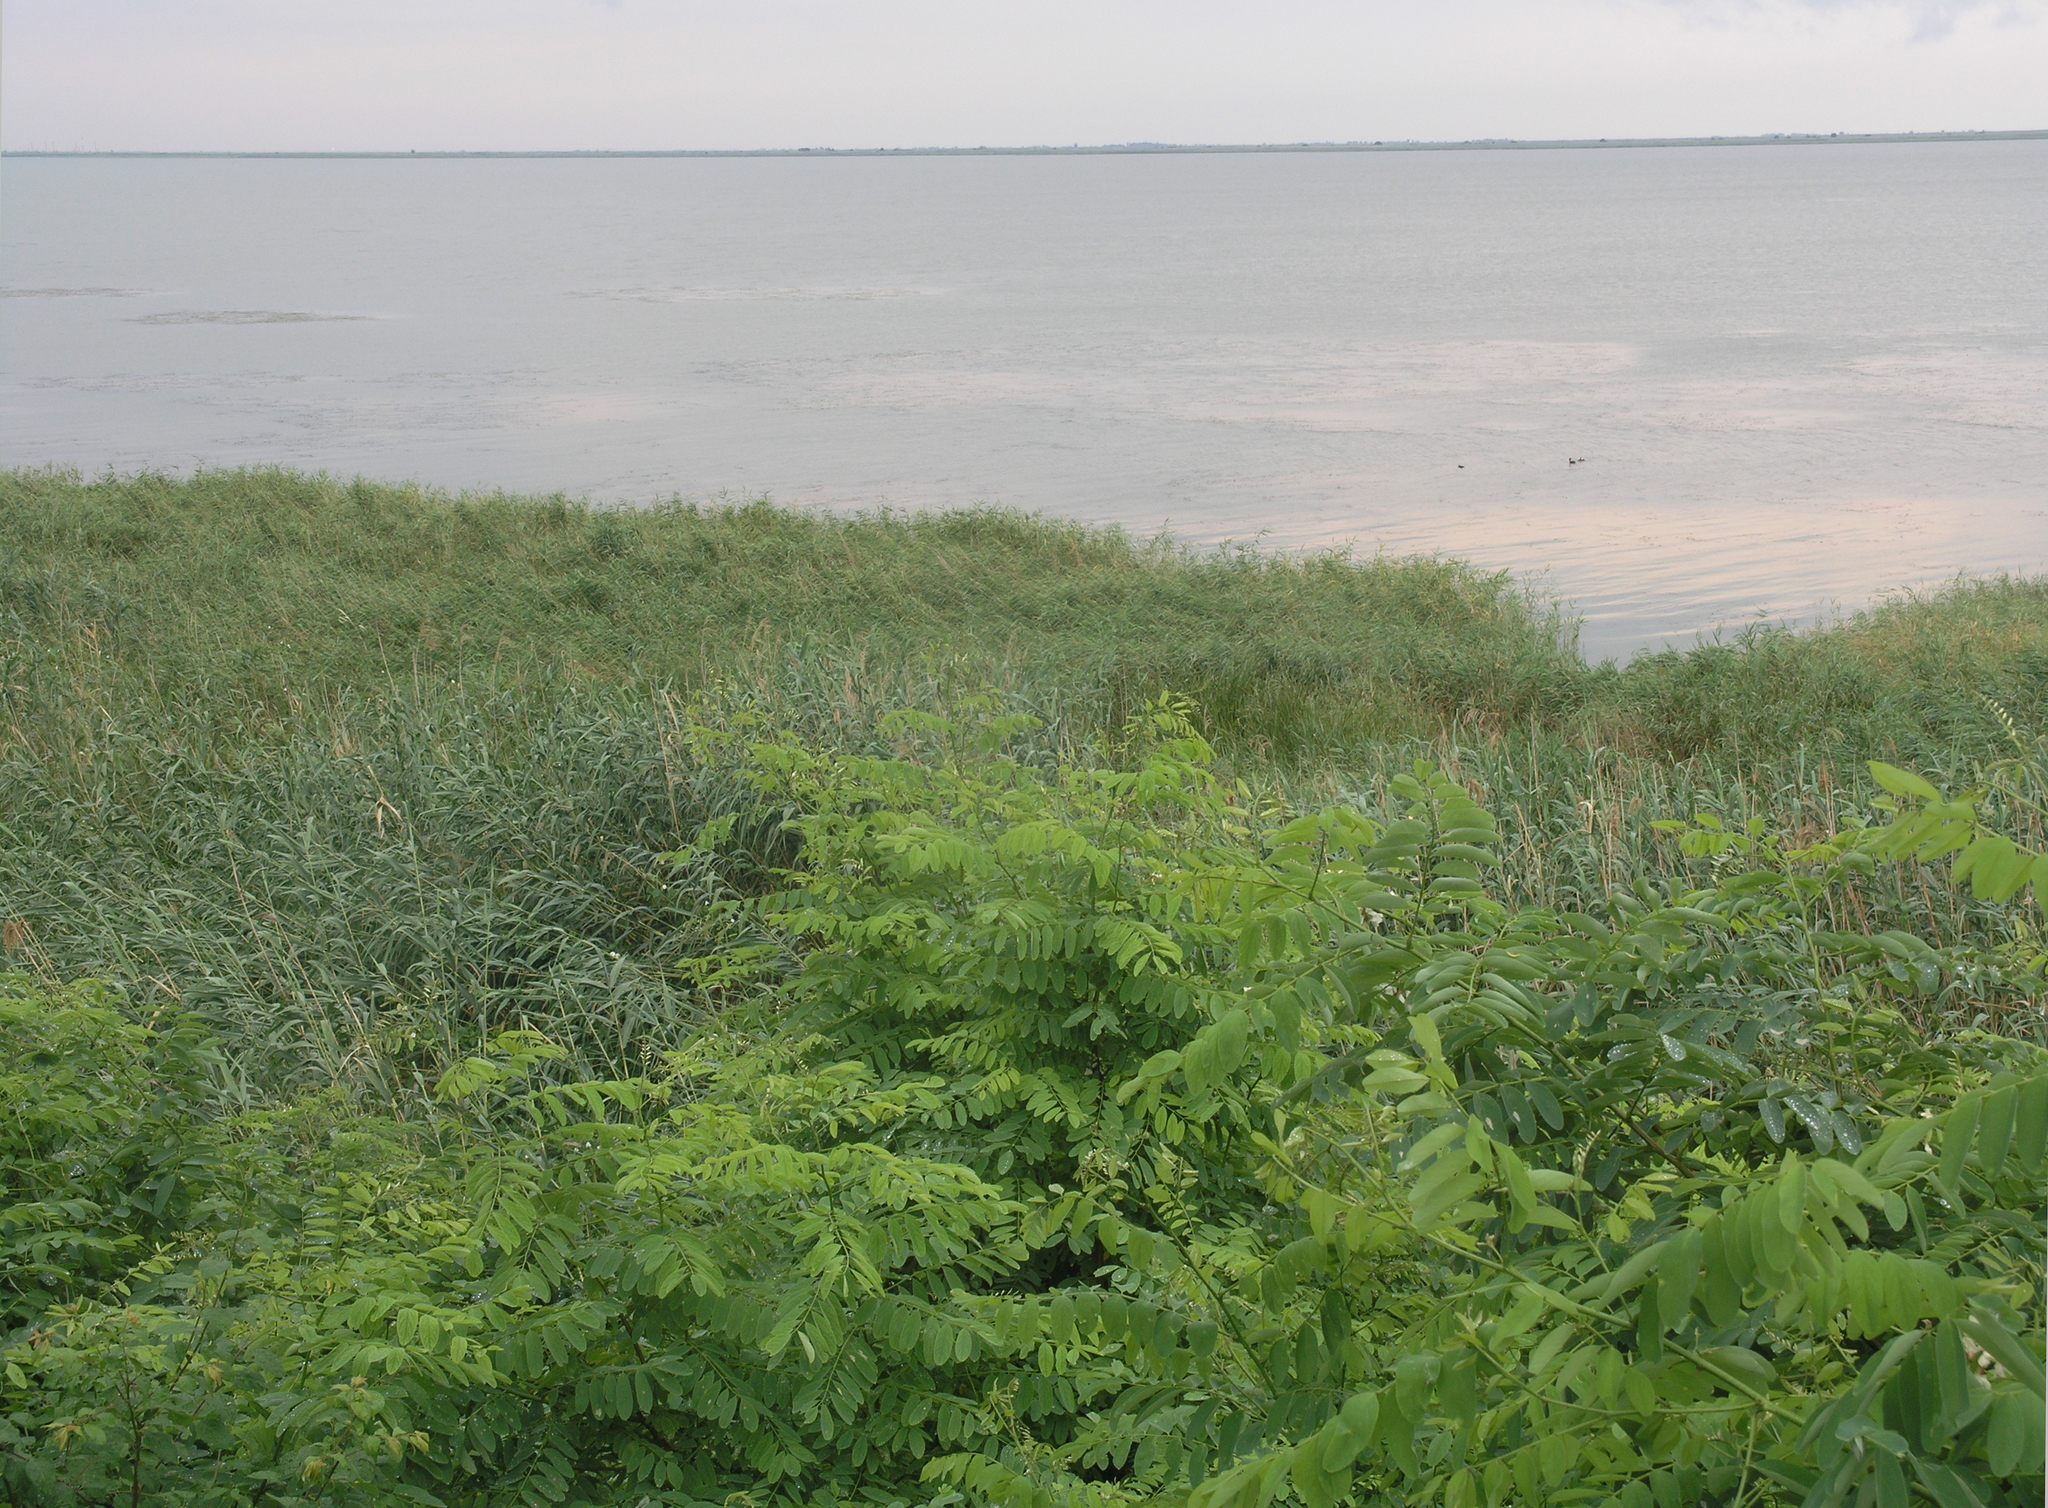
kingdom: Plantae
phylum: Tracheophyta
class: Magnoliopsida
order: Fabales
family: Fabaceae
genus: Robinia
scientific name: Robinia pseudoacacia
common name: Black locust
